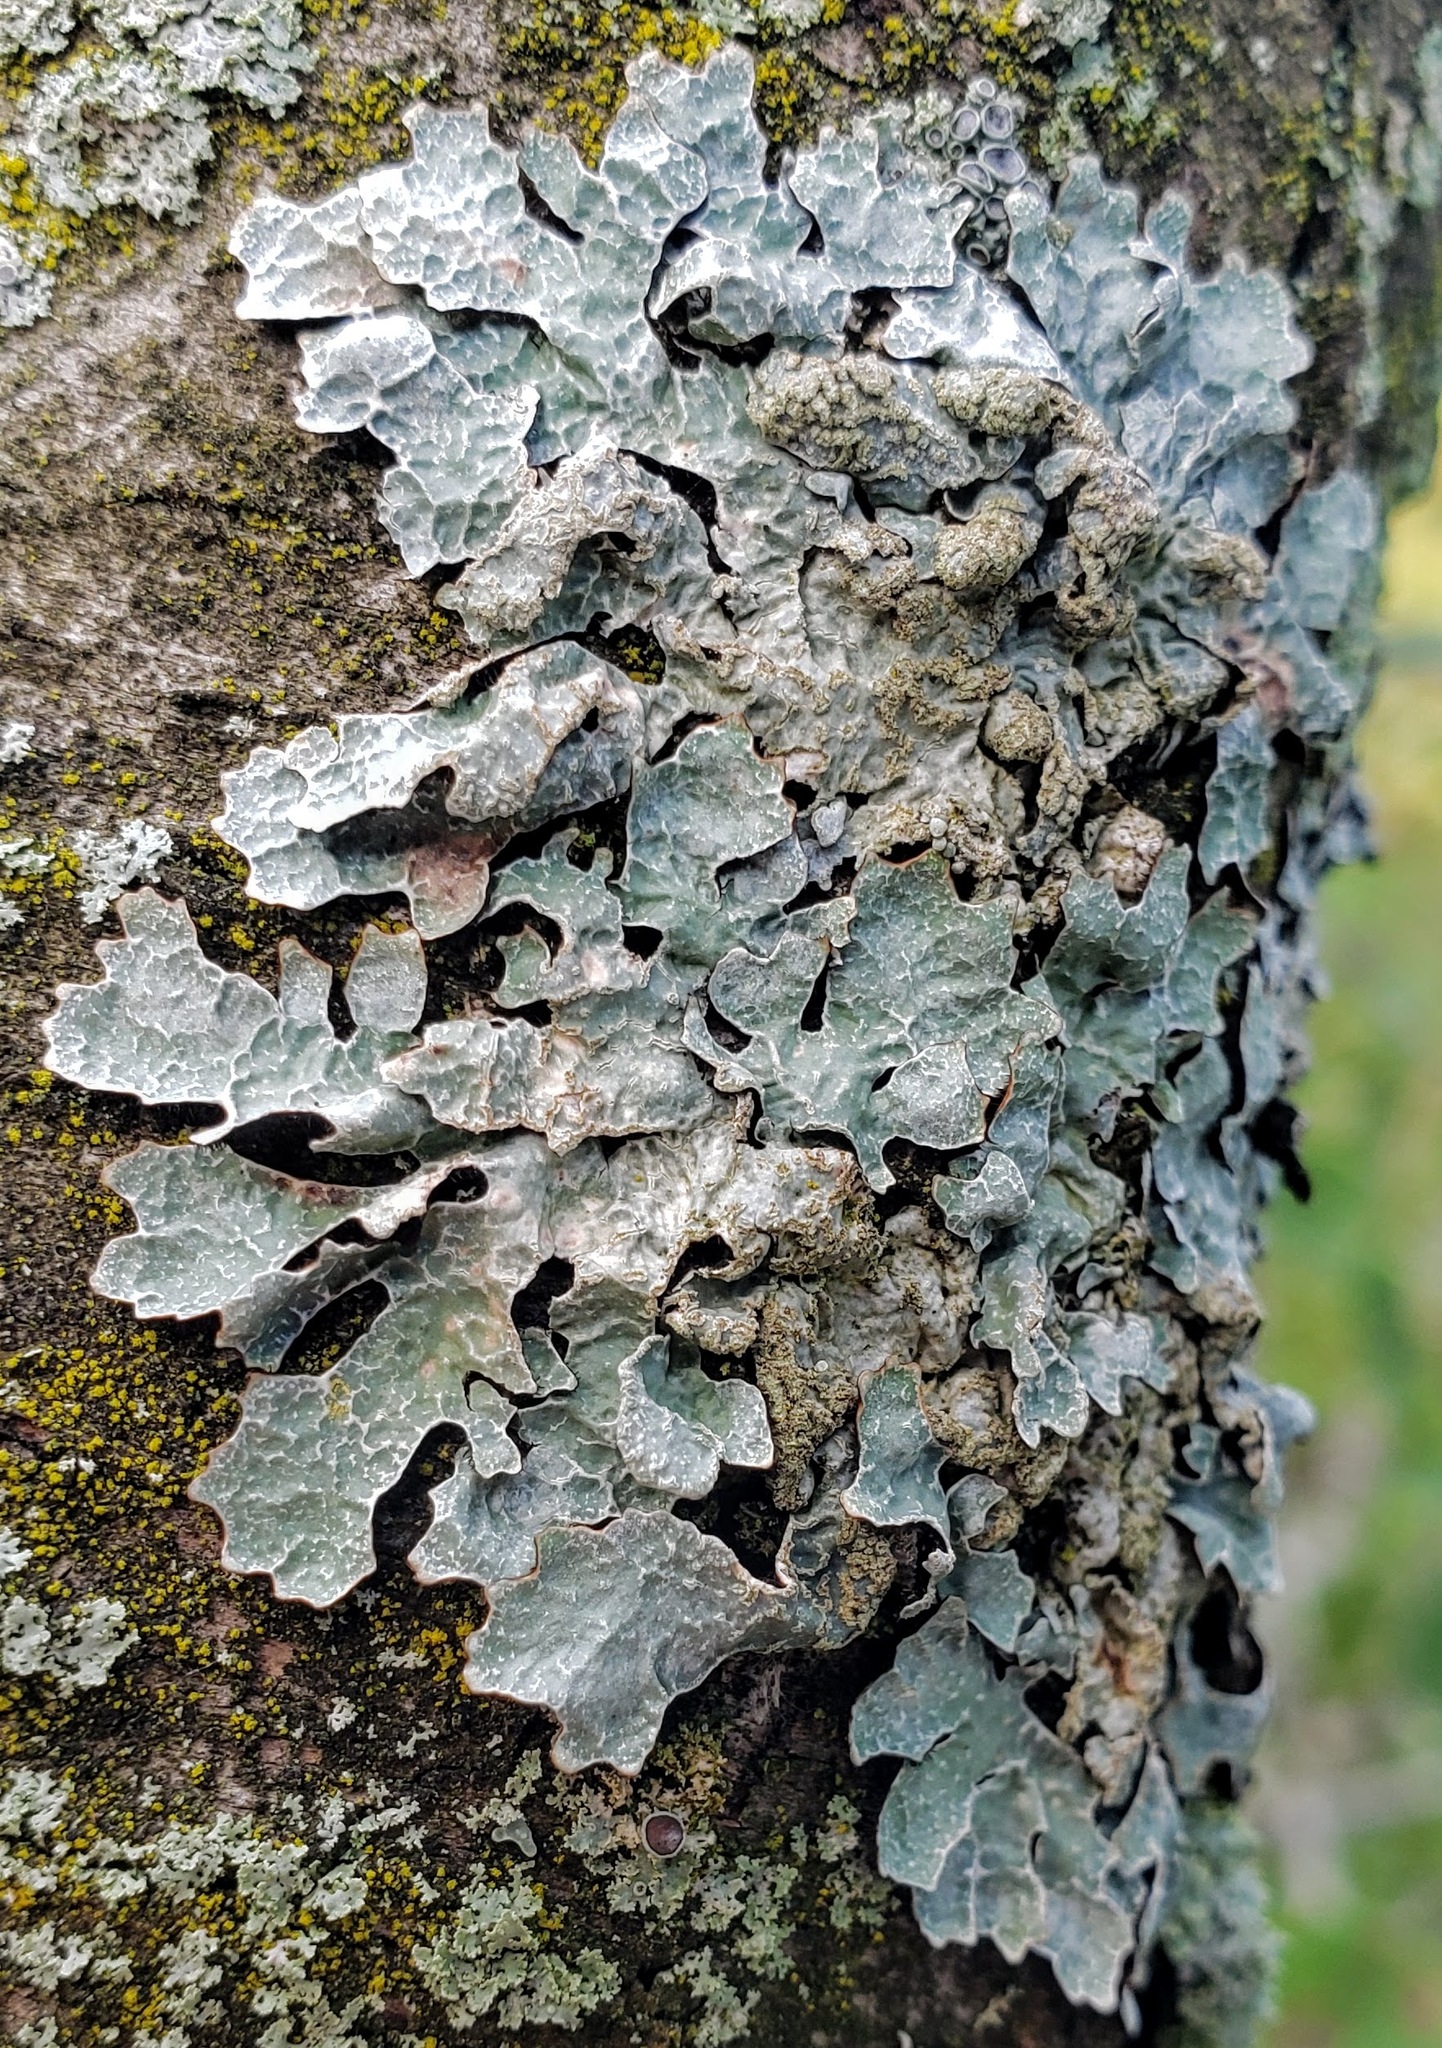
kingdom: Fungi
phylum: Ascomycota
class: Lecanoromycetes
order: Lecanorales
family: Parmeliaceae
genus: Parmelia
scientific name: Parmelia sulcata
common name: Netted shield lichen
